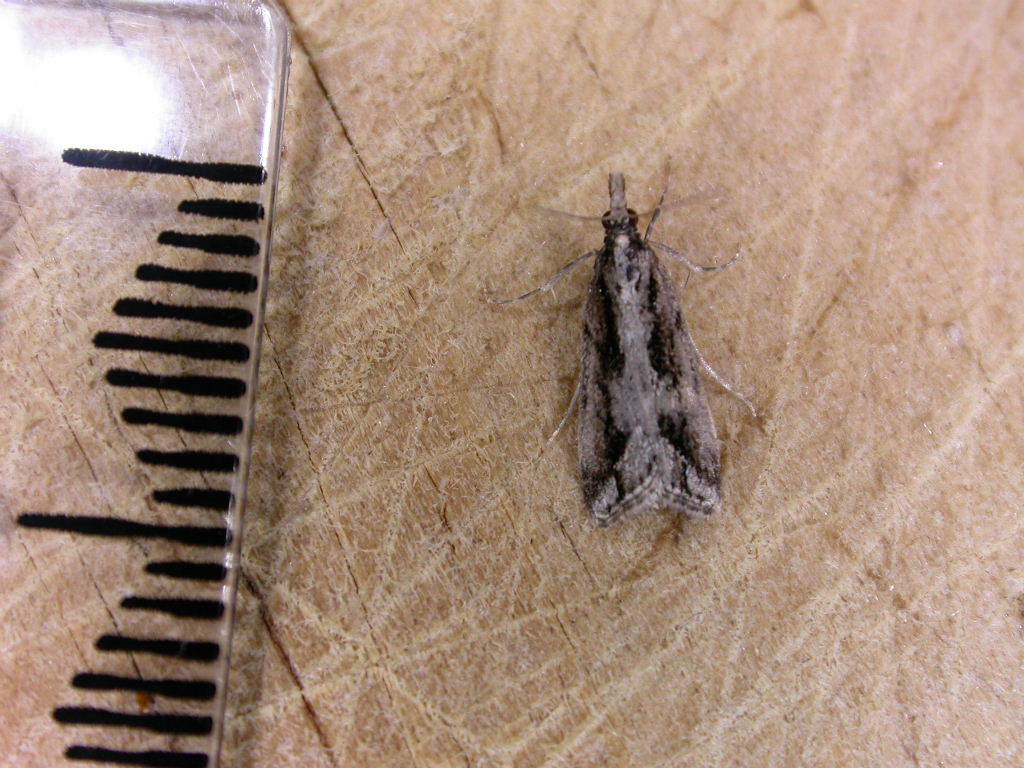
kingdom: Animalia
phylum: Arthropoda
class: Insecta
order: Lepidoptera
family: Crambidae
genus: Eudonia
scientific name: Eudonia steropaea
